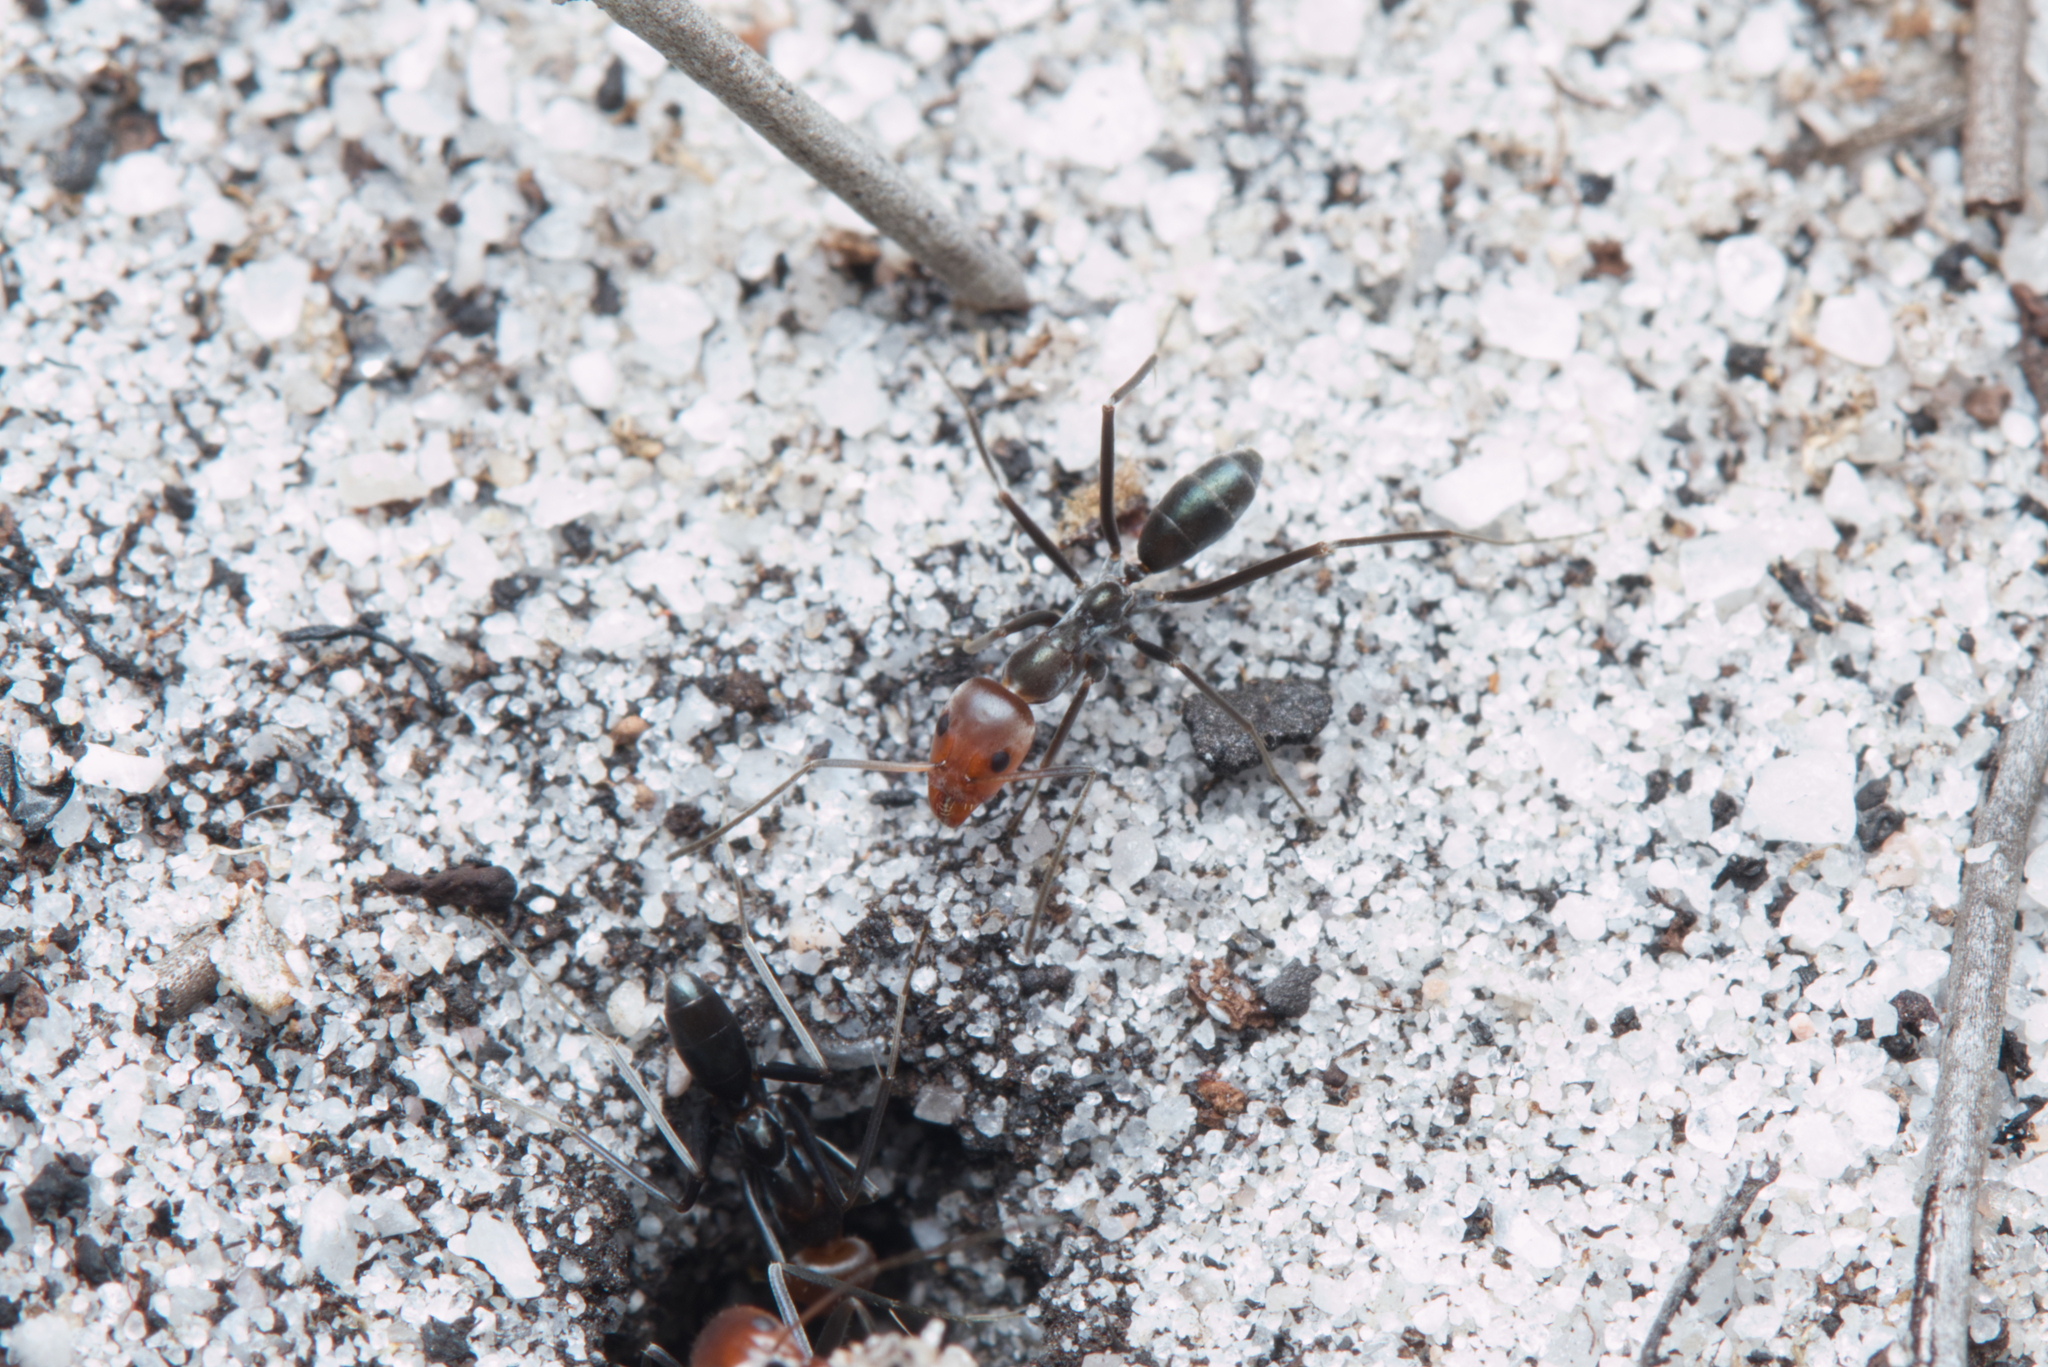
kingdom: Animalia
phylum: Arthropoda
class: Insecta
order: Hymenoptera
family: Formicidae
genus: Iridomyrmex
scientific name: Iridomyrmex
